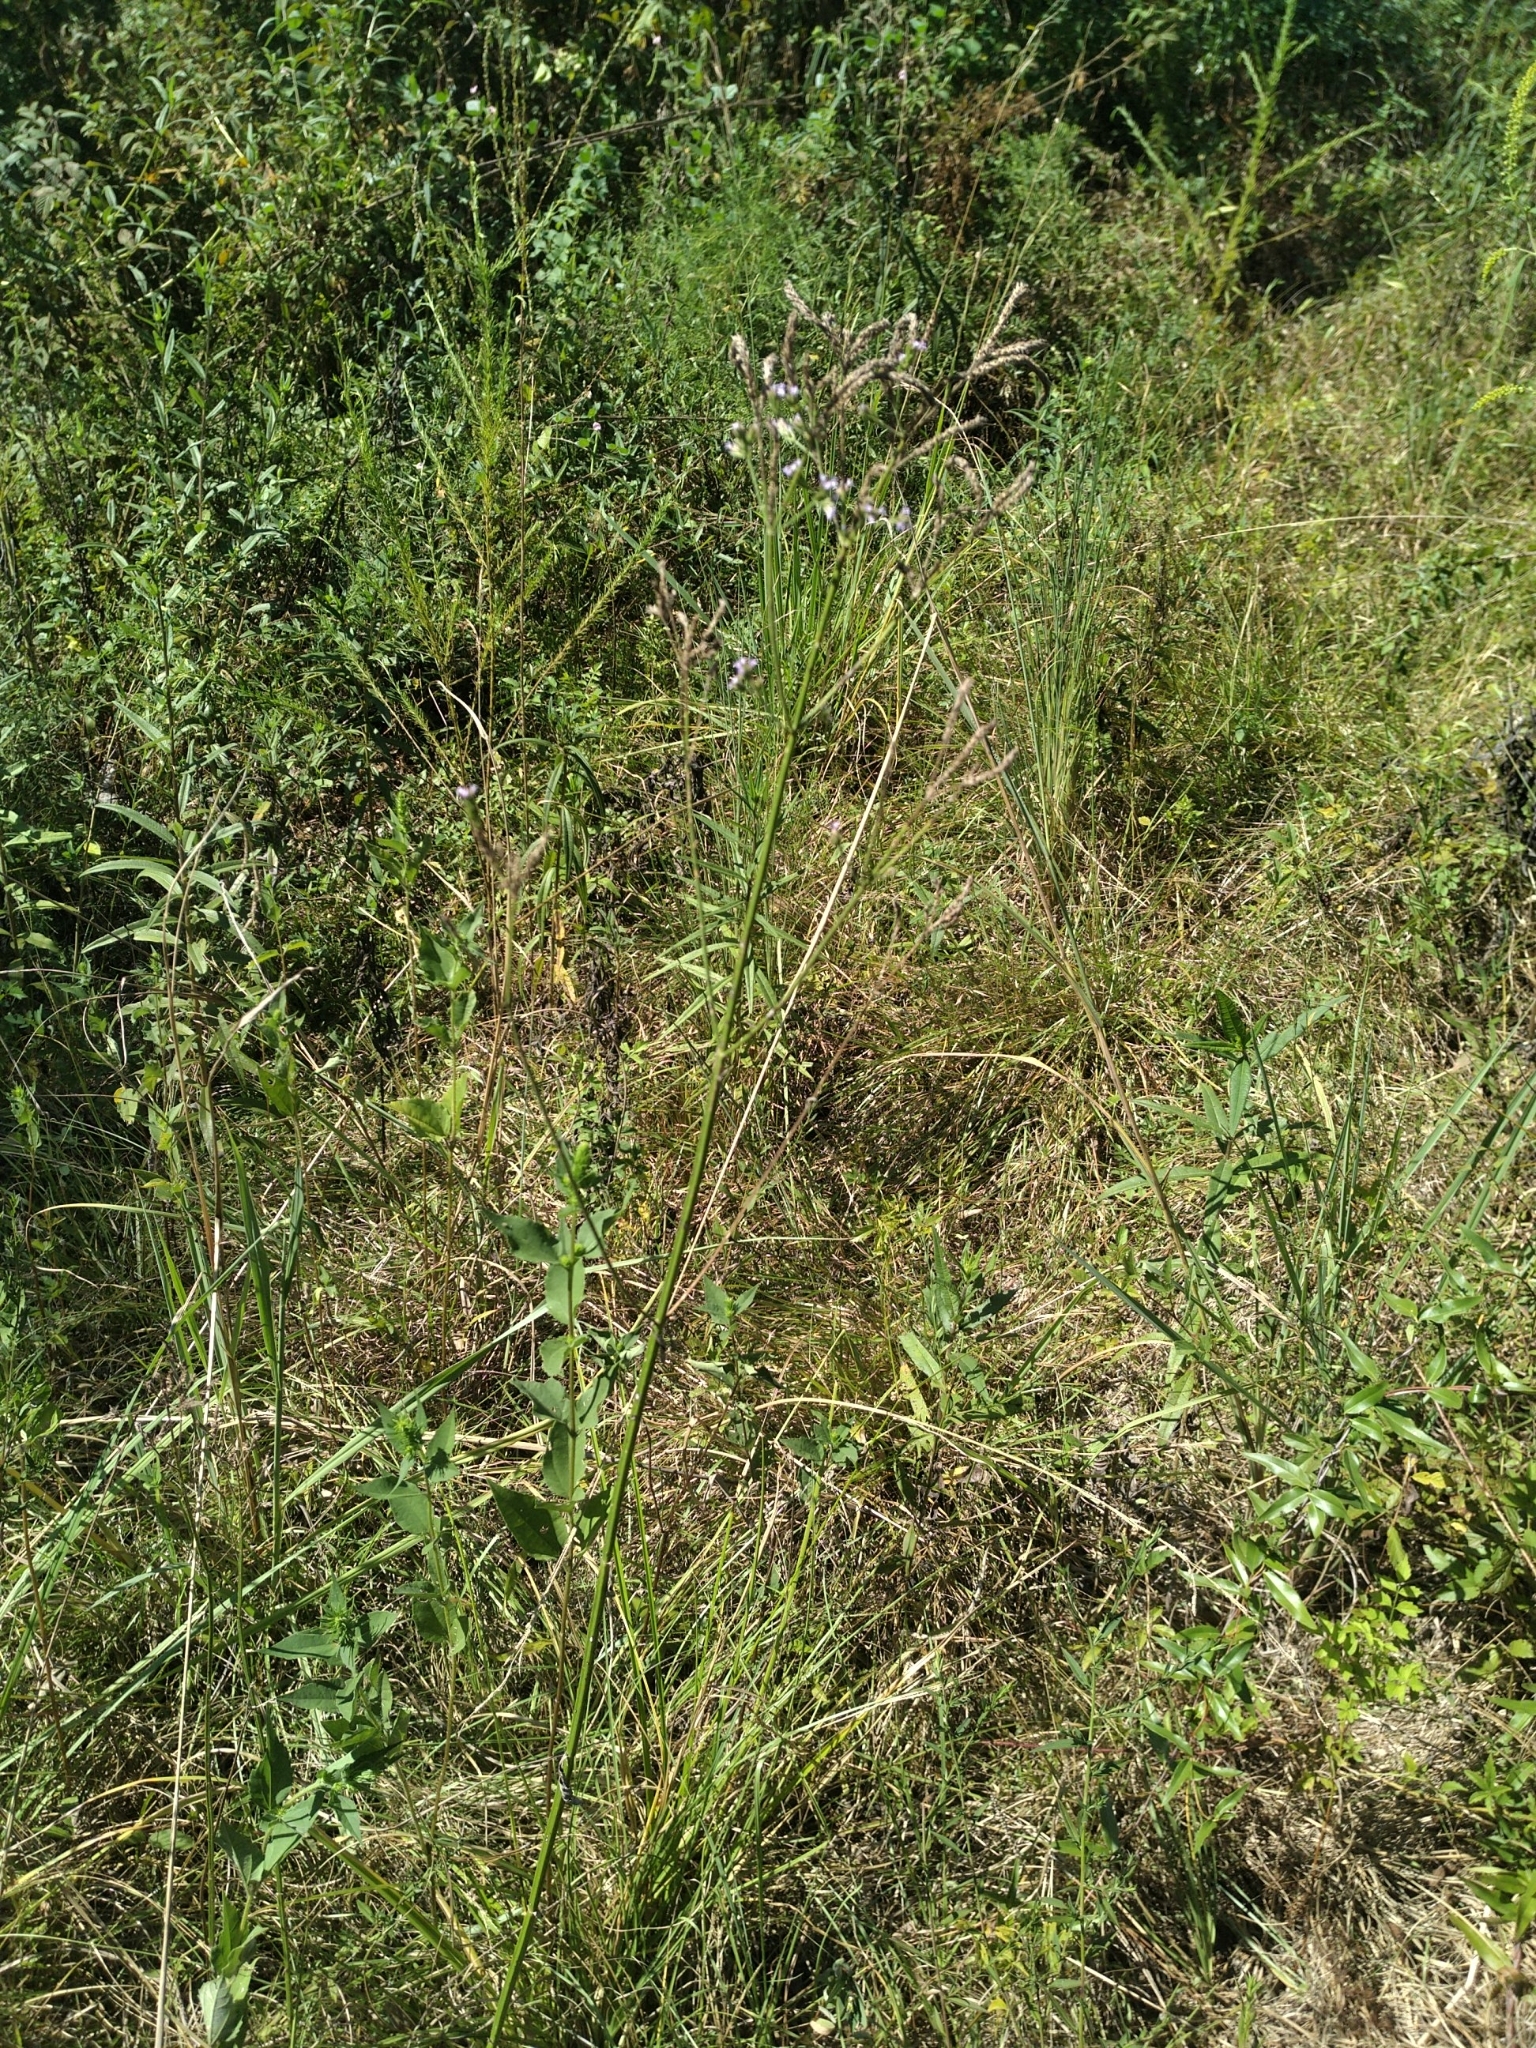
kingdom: Plantae
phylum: Tracheophyta
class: Magnoliopsida
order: Lamiales
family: Verbenaceae
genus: Verbena
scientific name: Verbena brasiliensis
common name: Brazilian vervain
